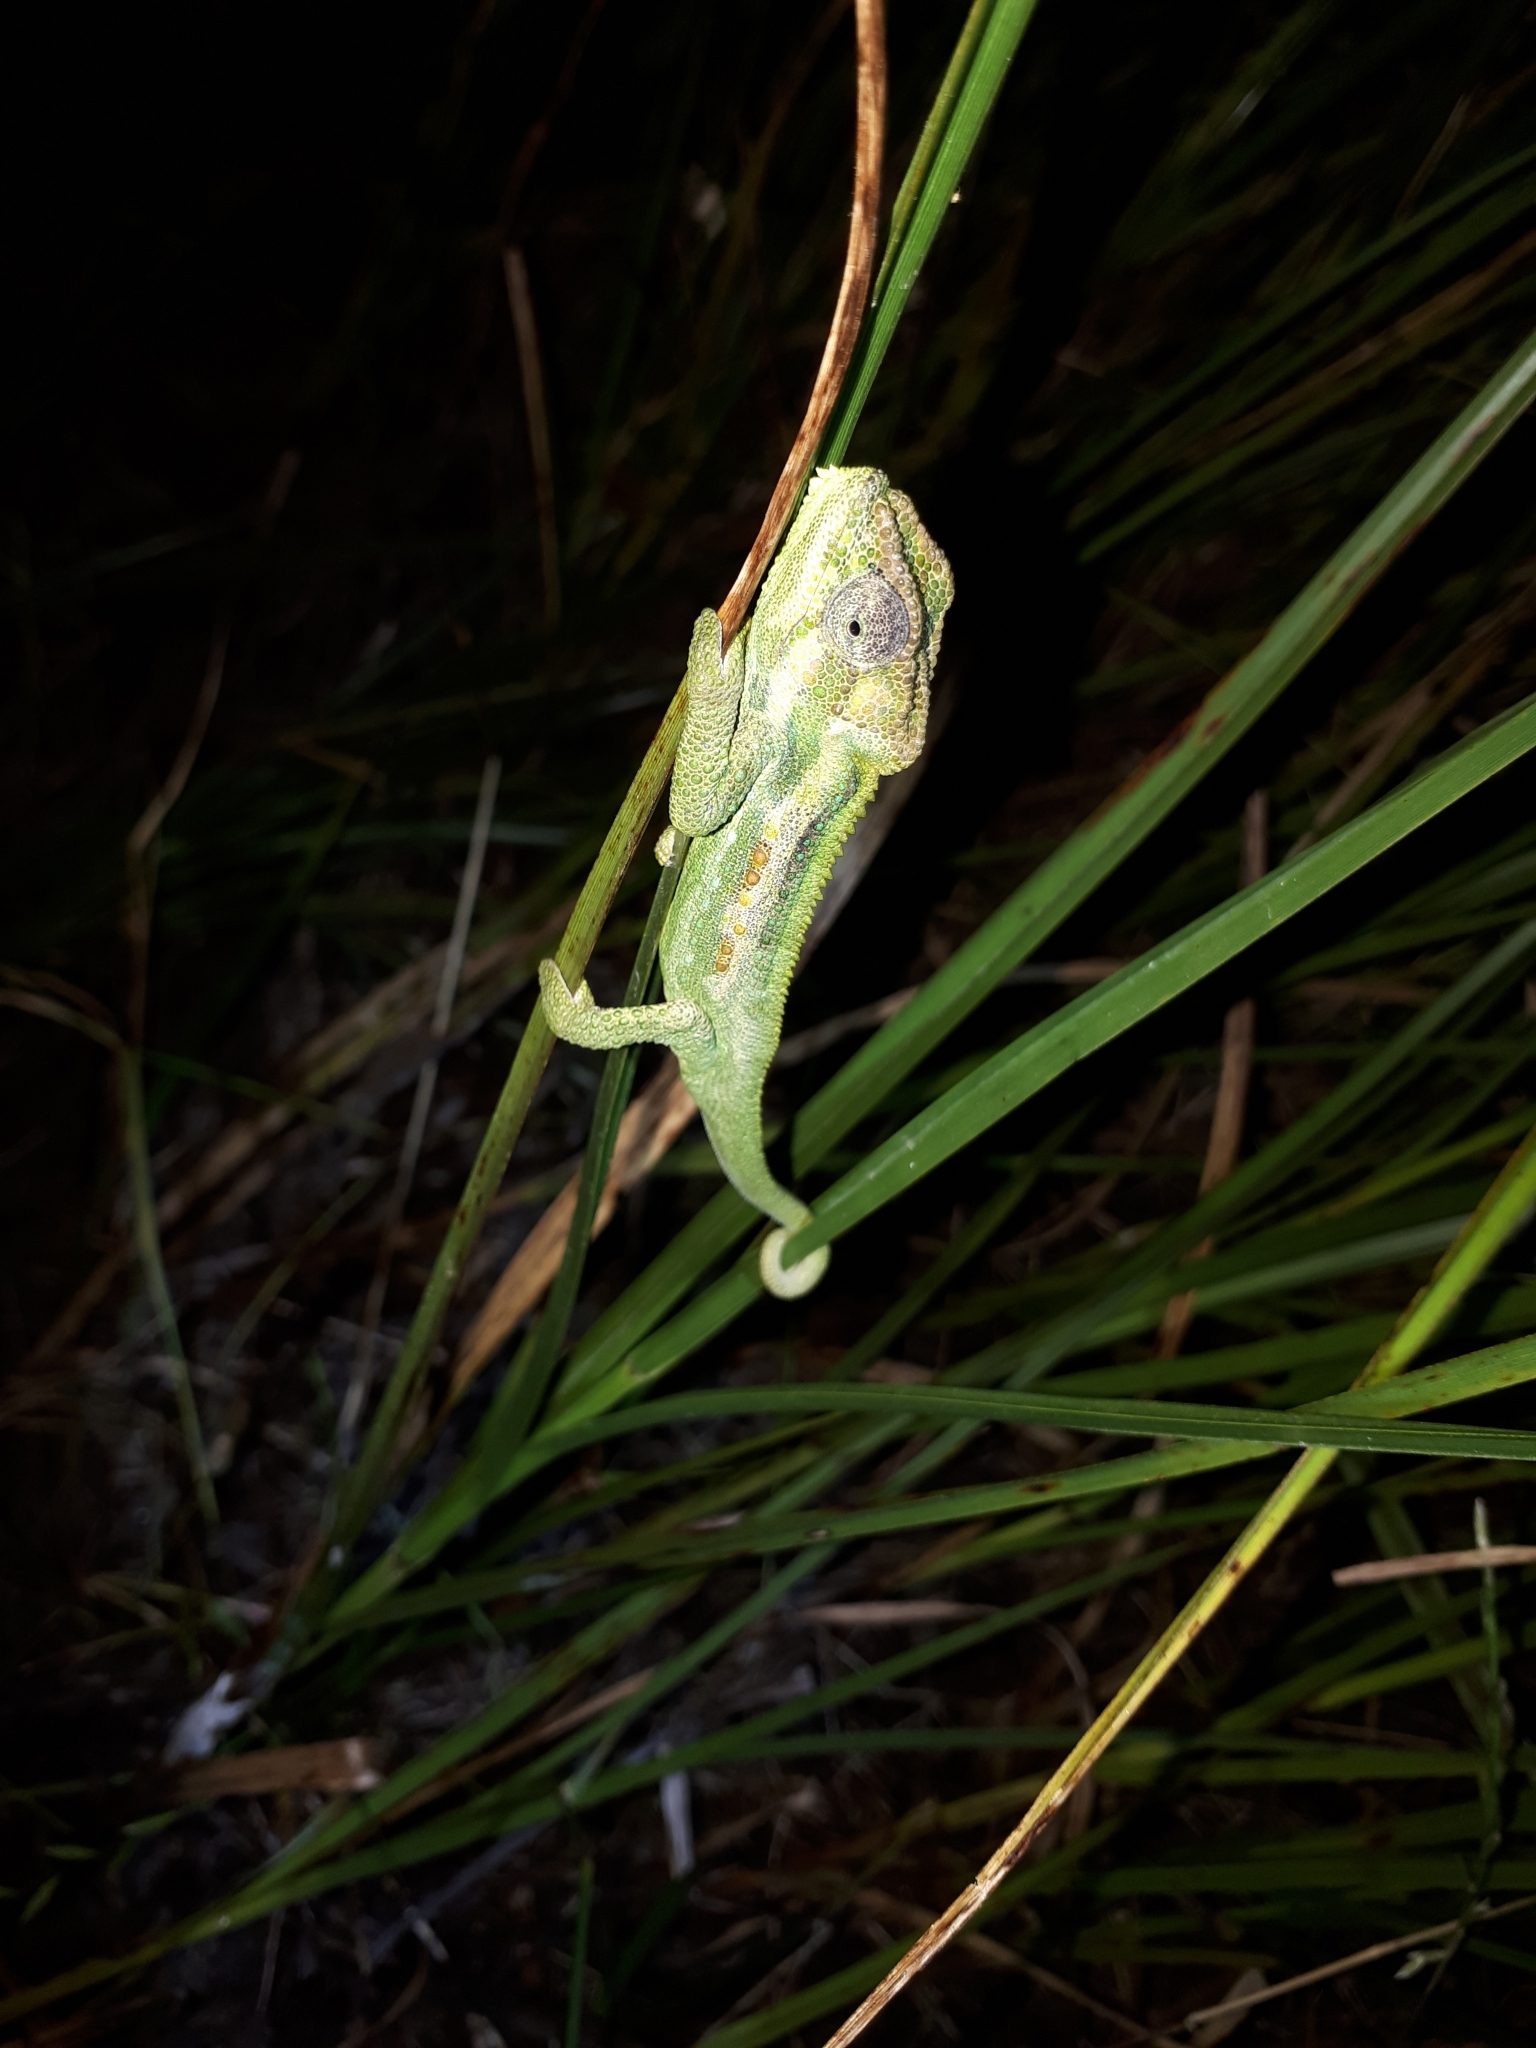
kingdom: Animalia
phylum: Chordata
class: Squamata
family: Chamaeleonidae
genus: Bradypodion
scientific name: Bradypodion pumilum
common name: Cape dwarf chameleon
